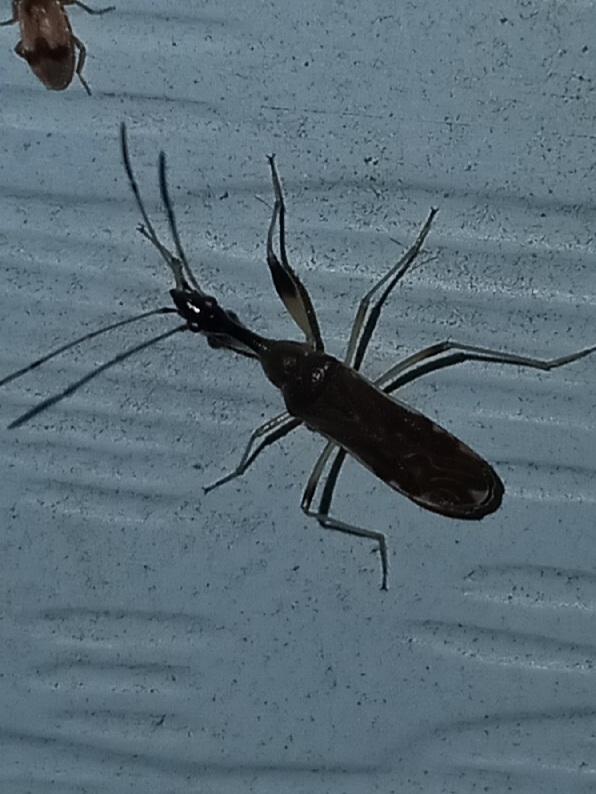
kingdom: Animalia
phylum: Arthropoda
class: Insecta
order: Hemiptera
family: Rhyparochromidae
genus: Myodocha
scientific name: Myodocha serripes
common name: Long-necked seed bug
